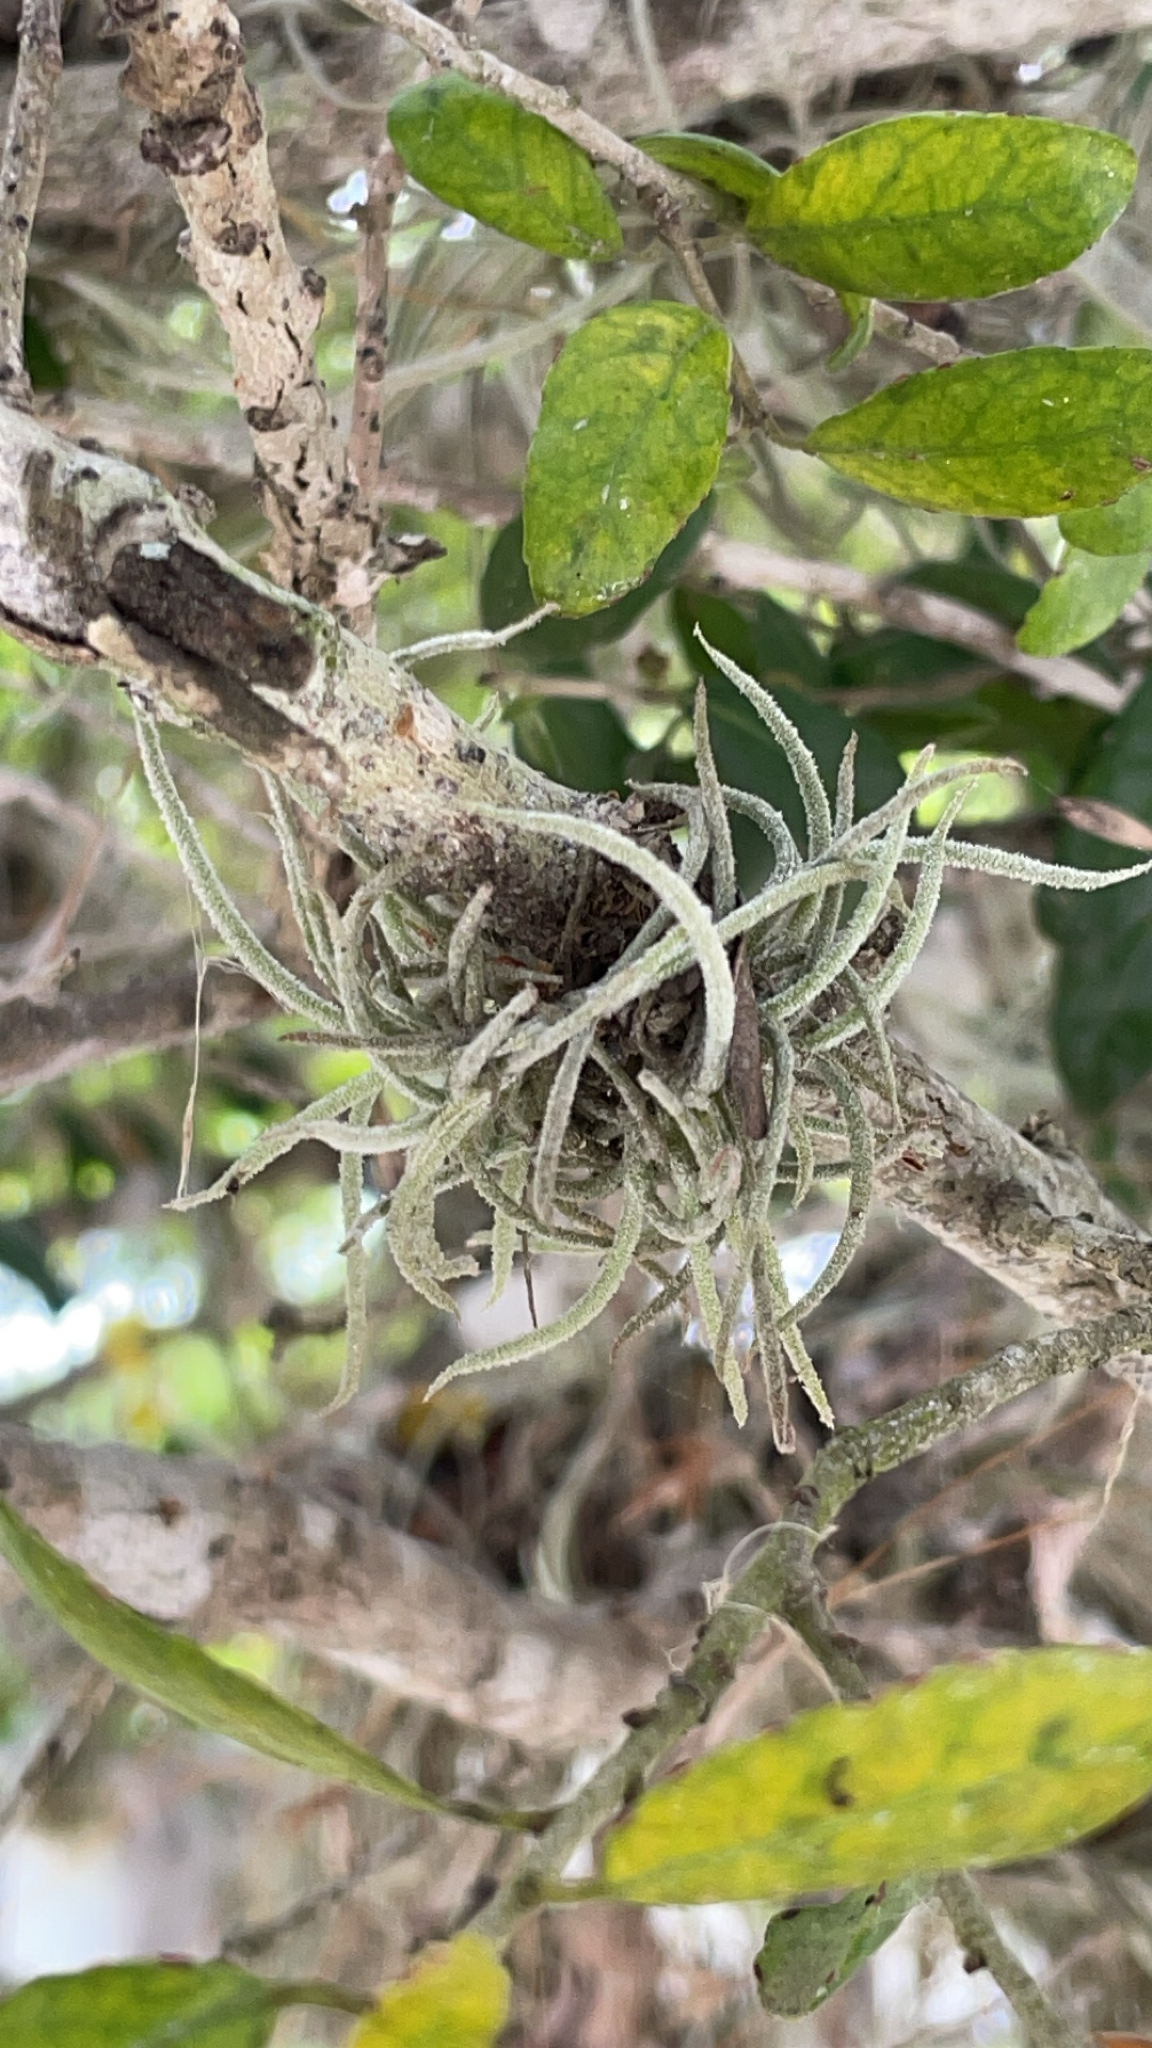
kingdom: Plantae
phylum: Tracheophyta
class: Liliopsida
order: Poales
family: Bromeliaceae
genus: Tillandsia
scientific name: Tillandsia recurvata
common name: Small ballmoss
